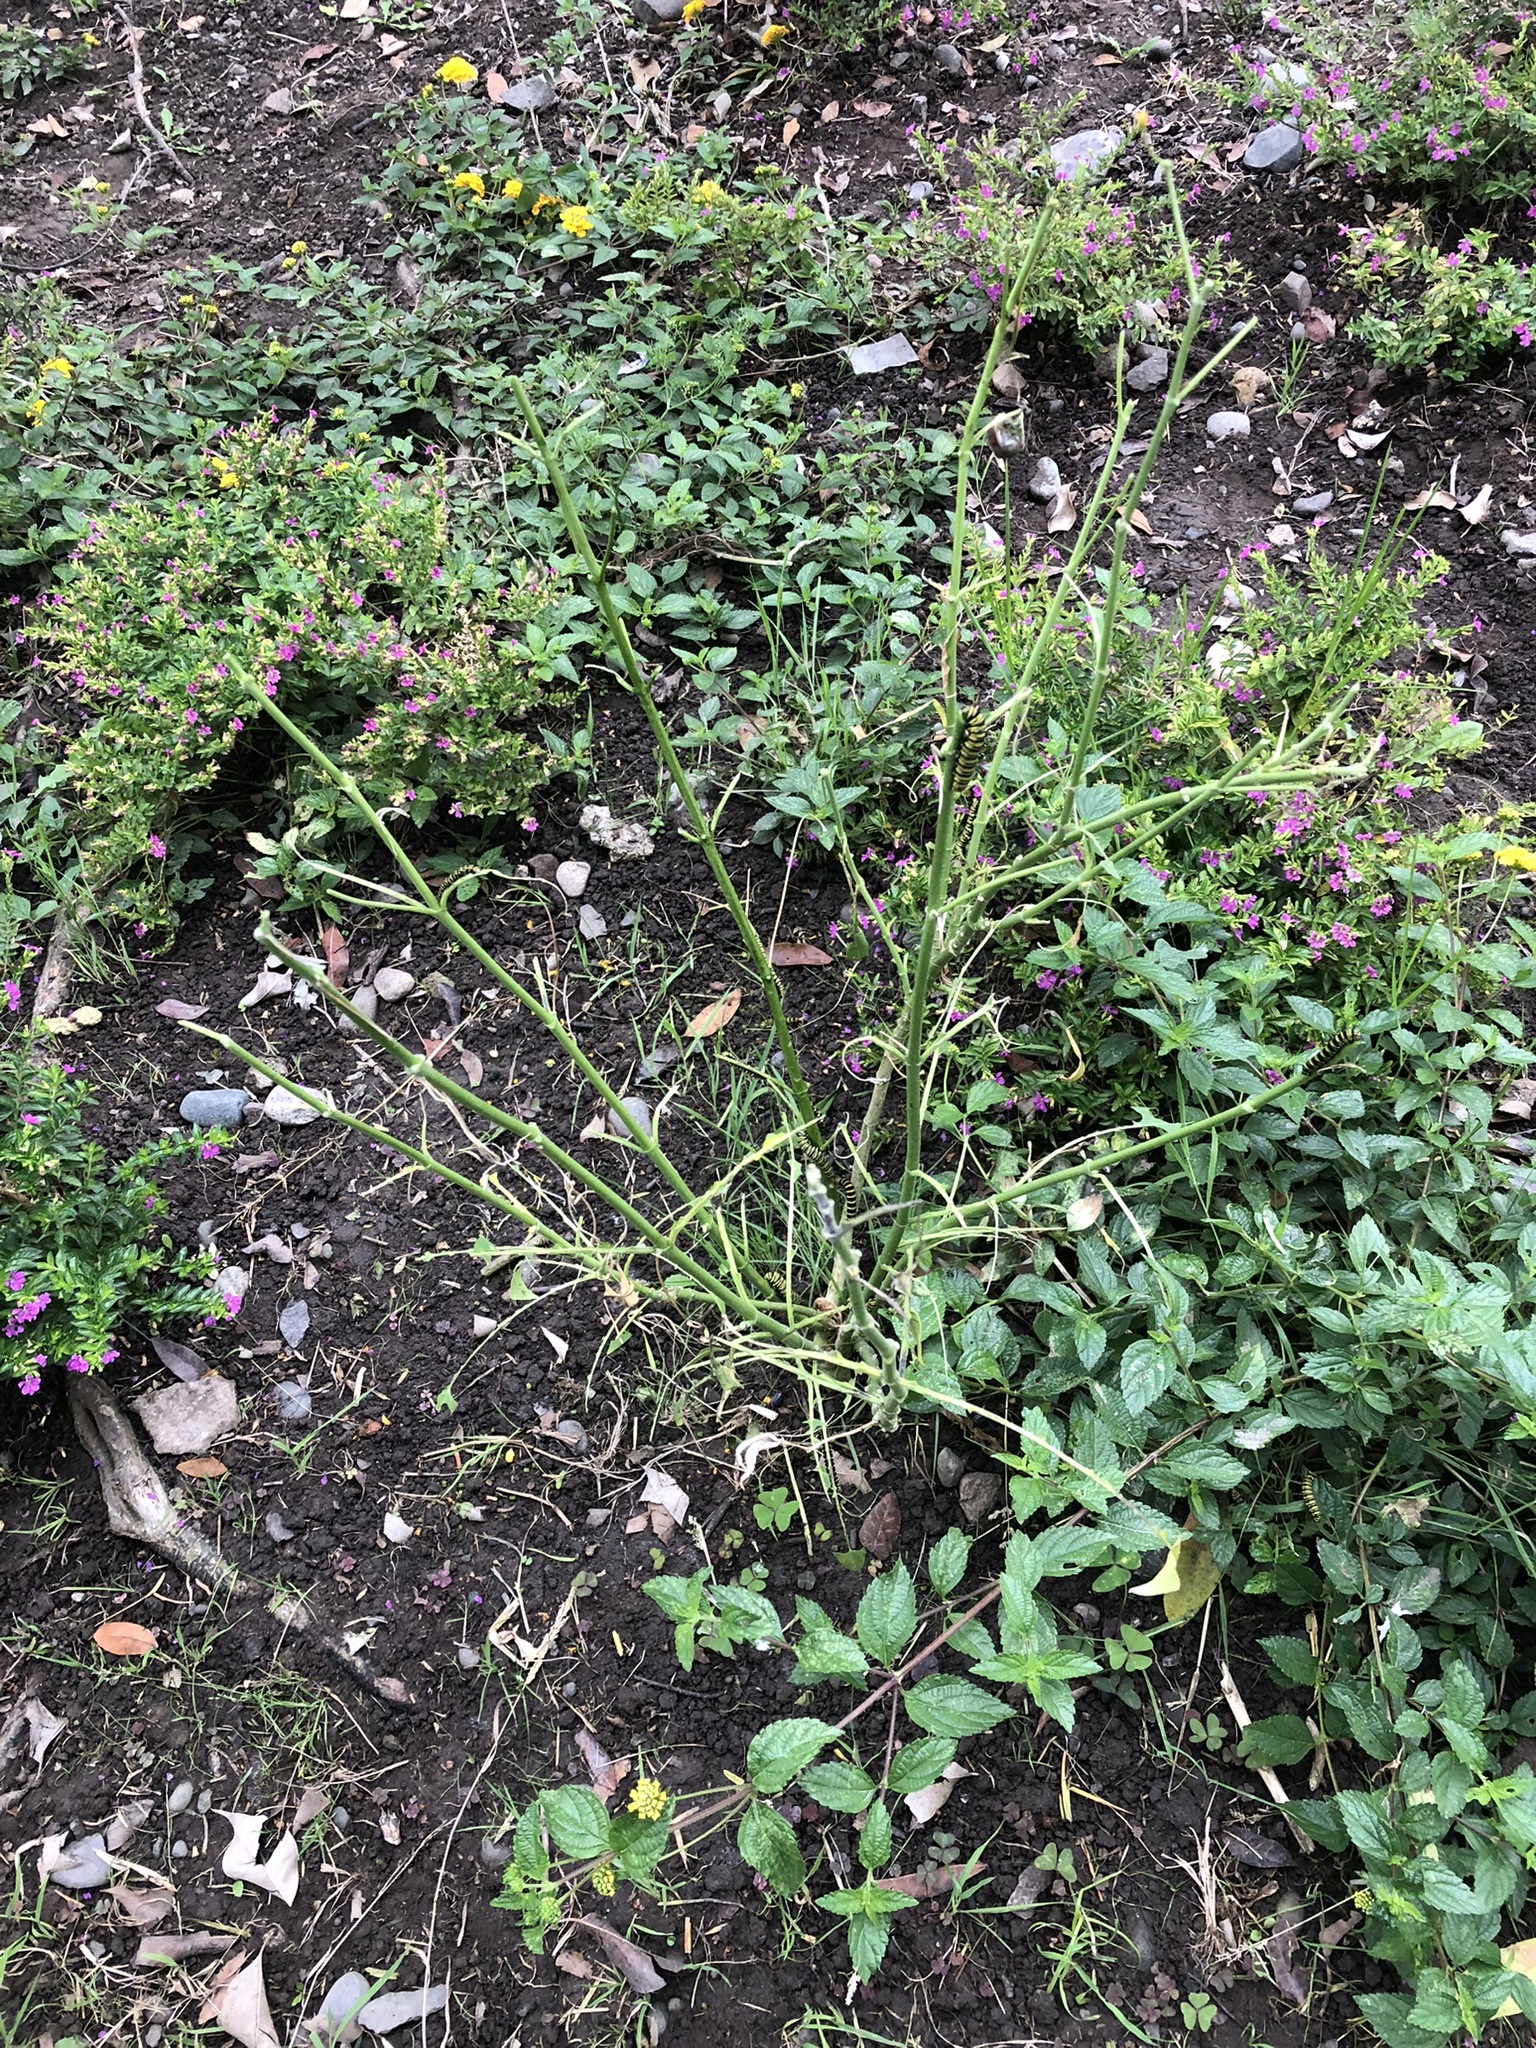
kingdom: Plantae
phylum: Tracheophyta
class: Magnoliopsida
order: Gentianales
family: Apocynaceae
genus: Asclepias
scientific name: Asclepias curassavica
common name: Bloodflower
